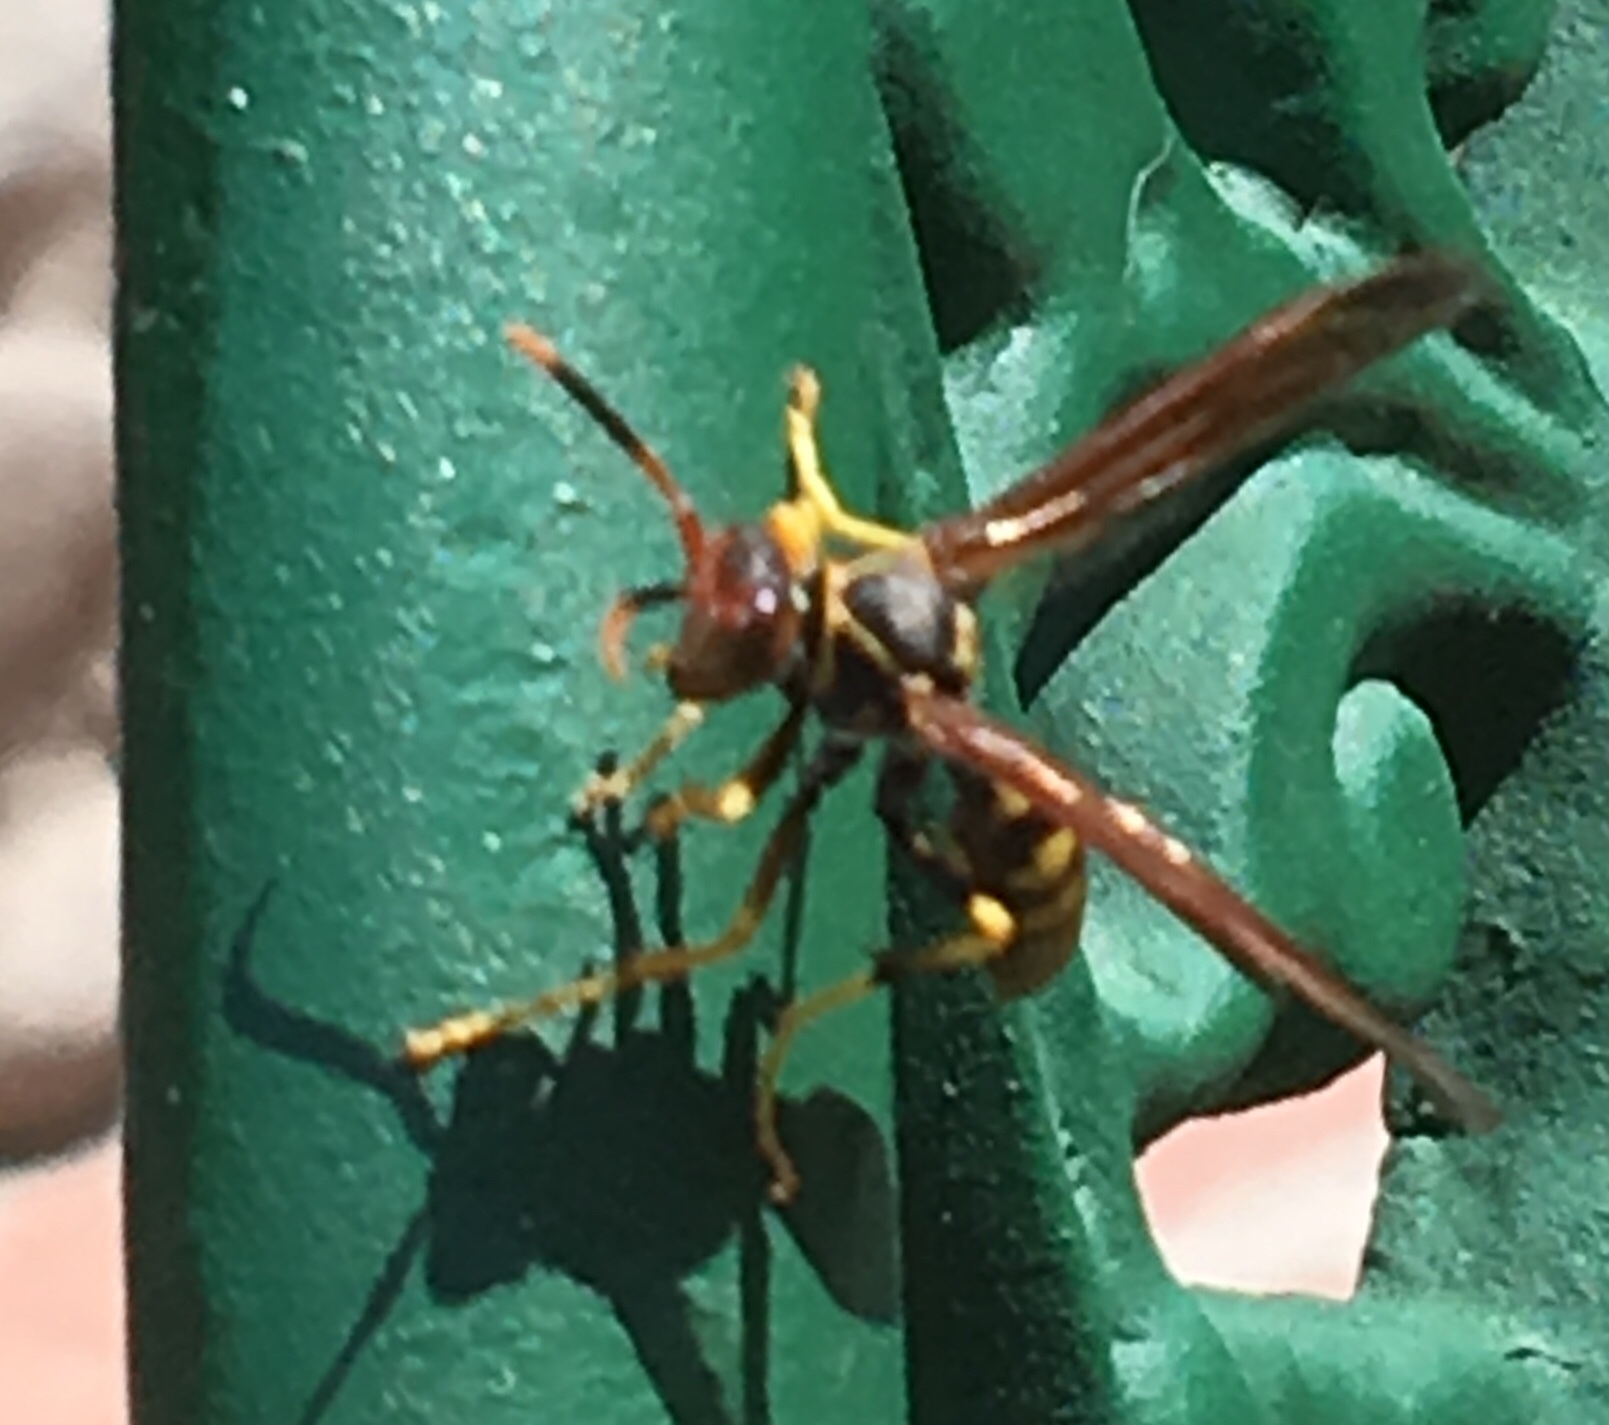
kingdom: Animalia
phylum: Arthropoda
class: Insecta
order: Hymenoptera
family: Eumenidae
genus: Polistes
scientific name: Polistes weyrauchorum
